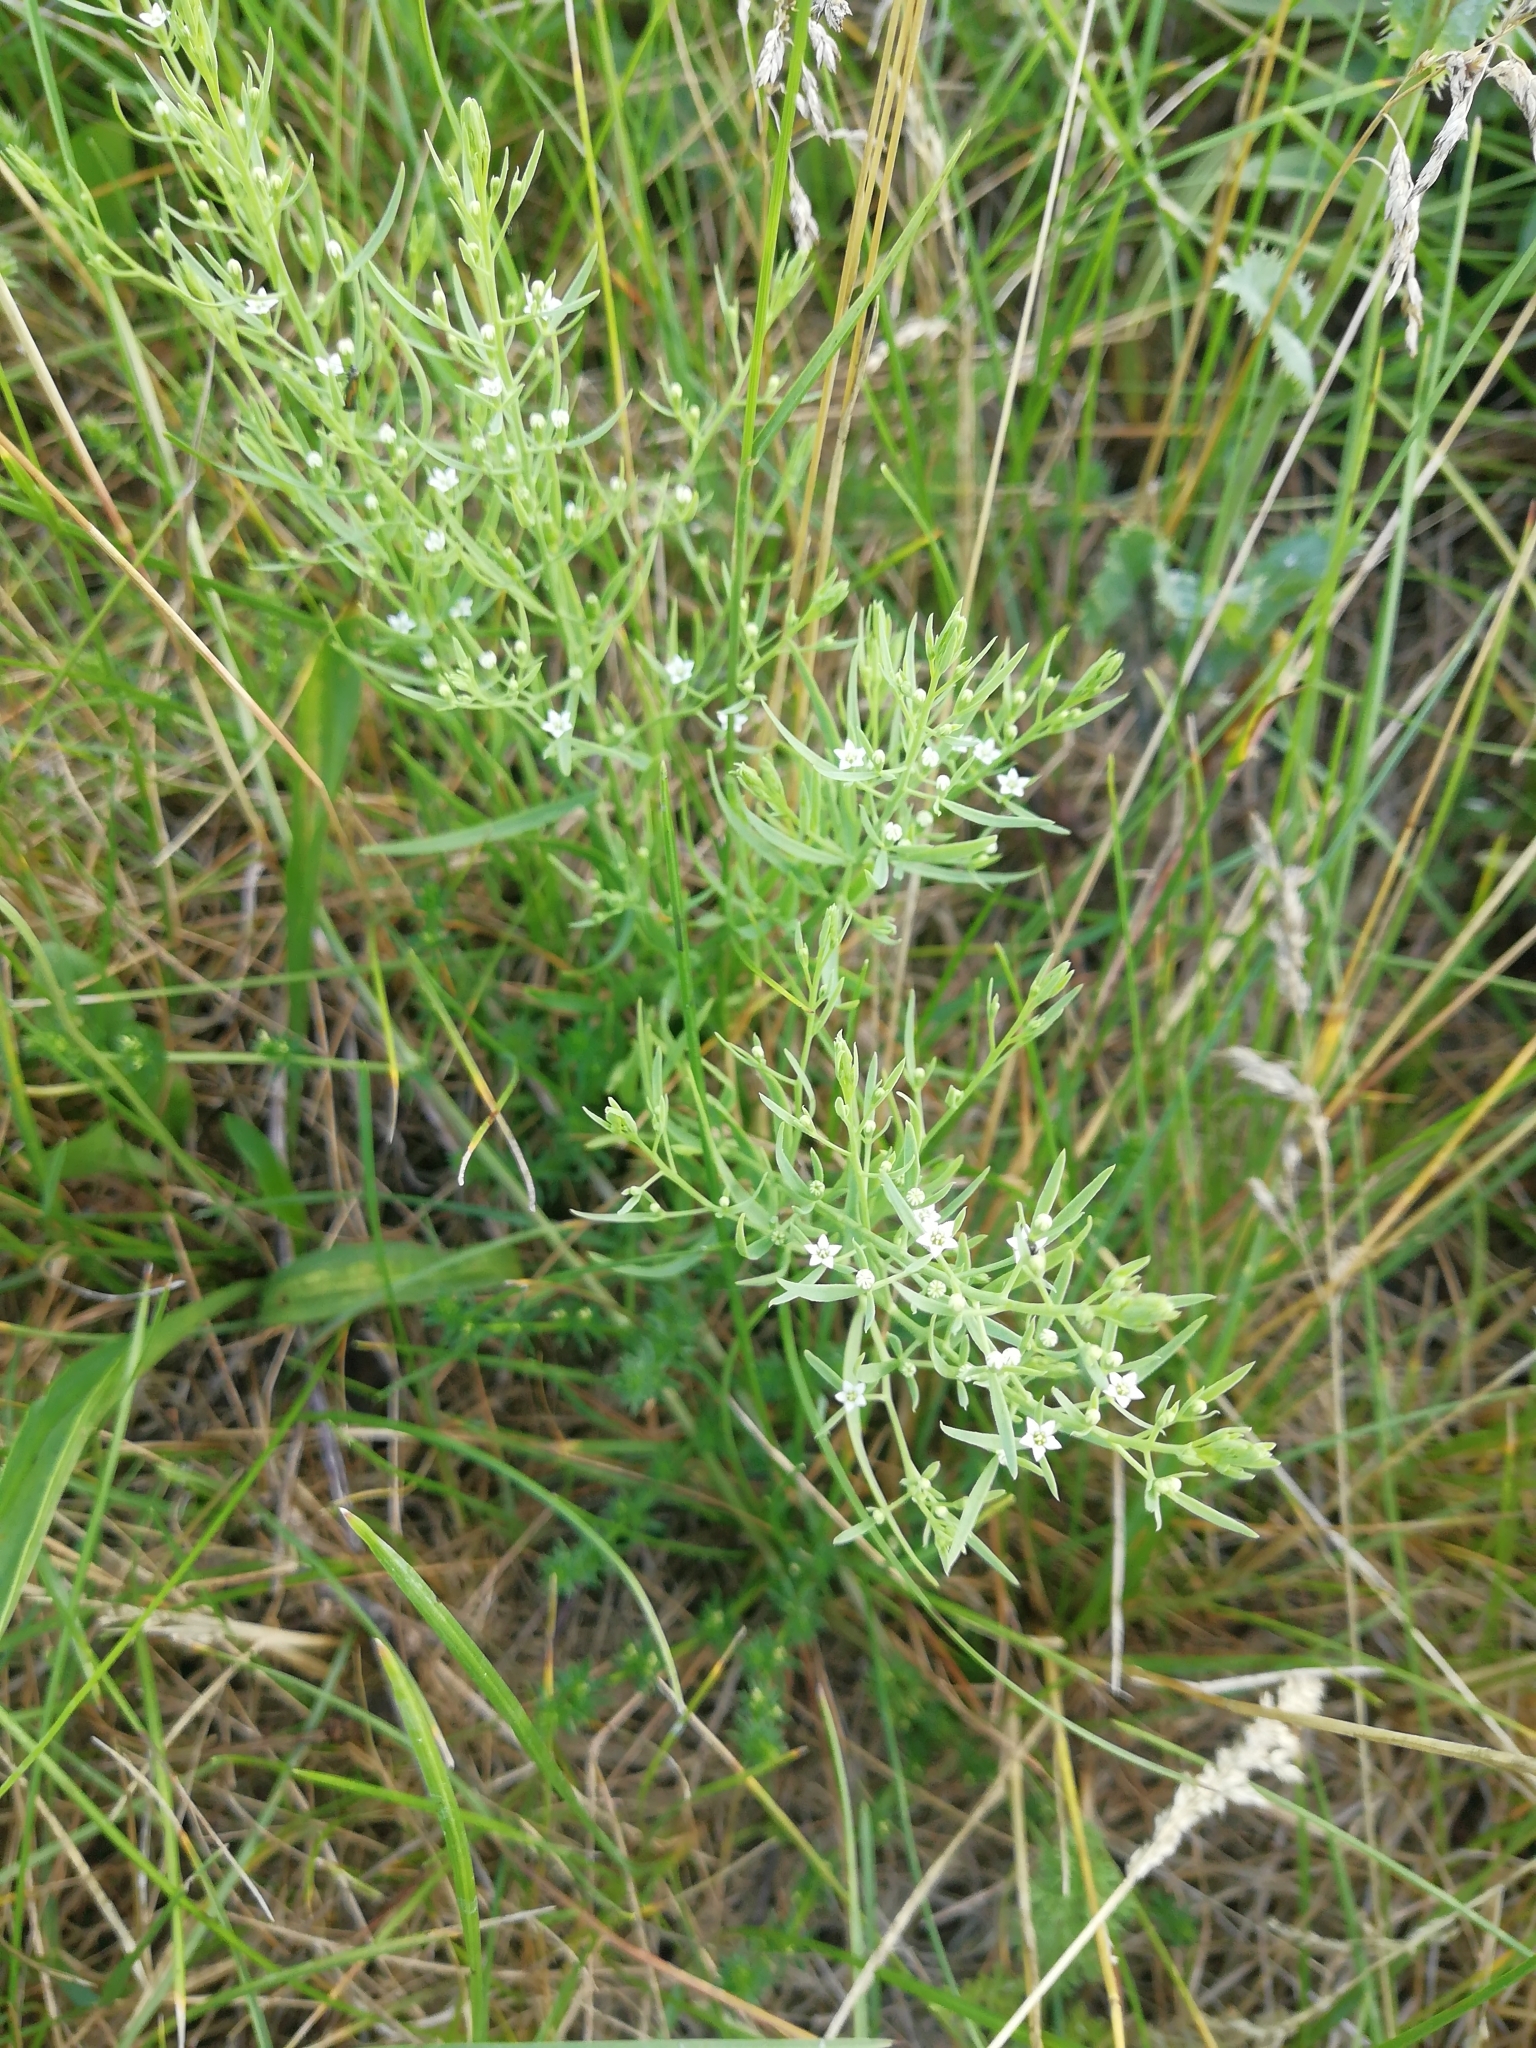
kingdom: Plantae
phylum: Tracheophyta
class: Magnoliopsida
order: Santalales
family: Thesiaceae
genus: Thesium
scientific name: Thesium ramosum
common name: Field thesium
